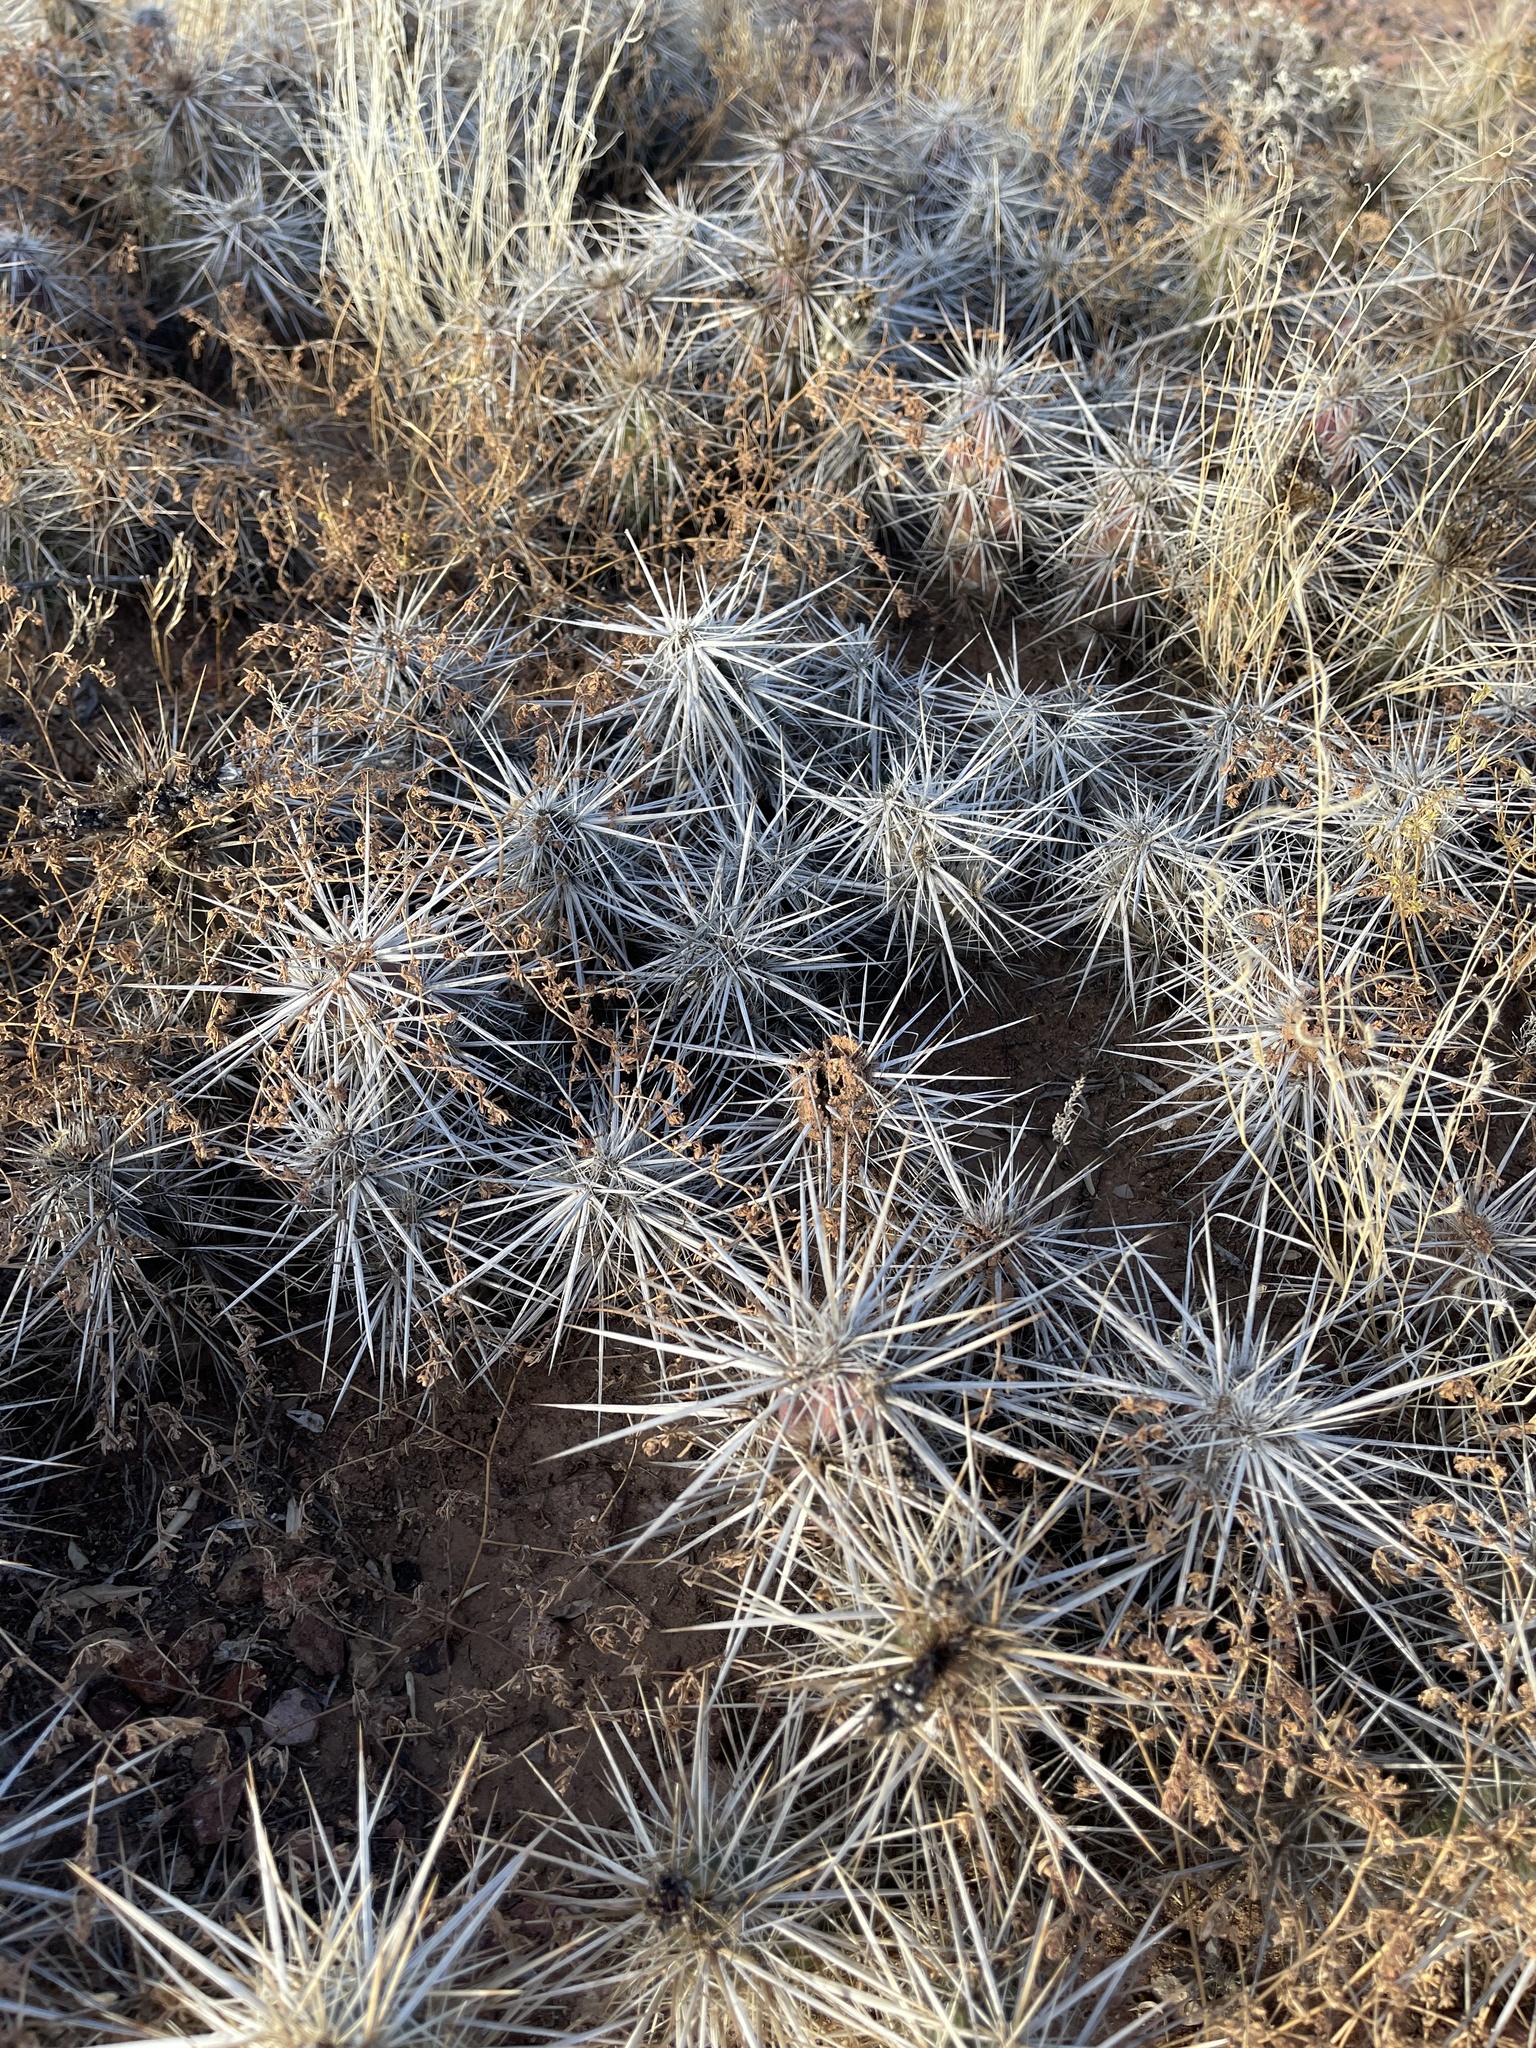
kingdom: Plantae
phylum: Tracheophyta
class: Magnoliopsida
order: Caryophyllales
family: Cactaceae
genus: Grusonia
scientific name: Grusonia emoryi
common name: Stanly's club cholla
